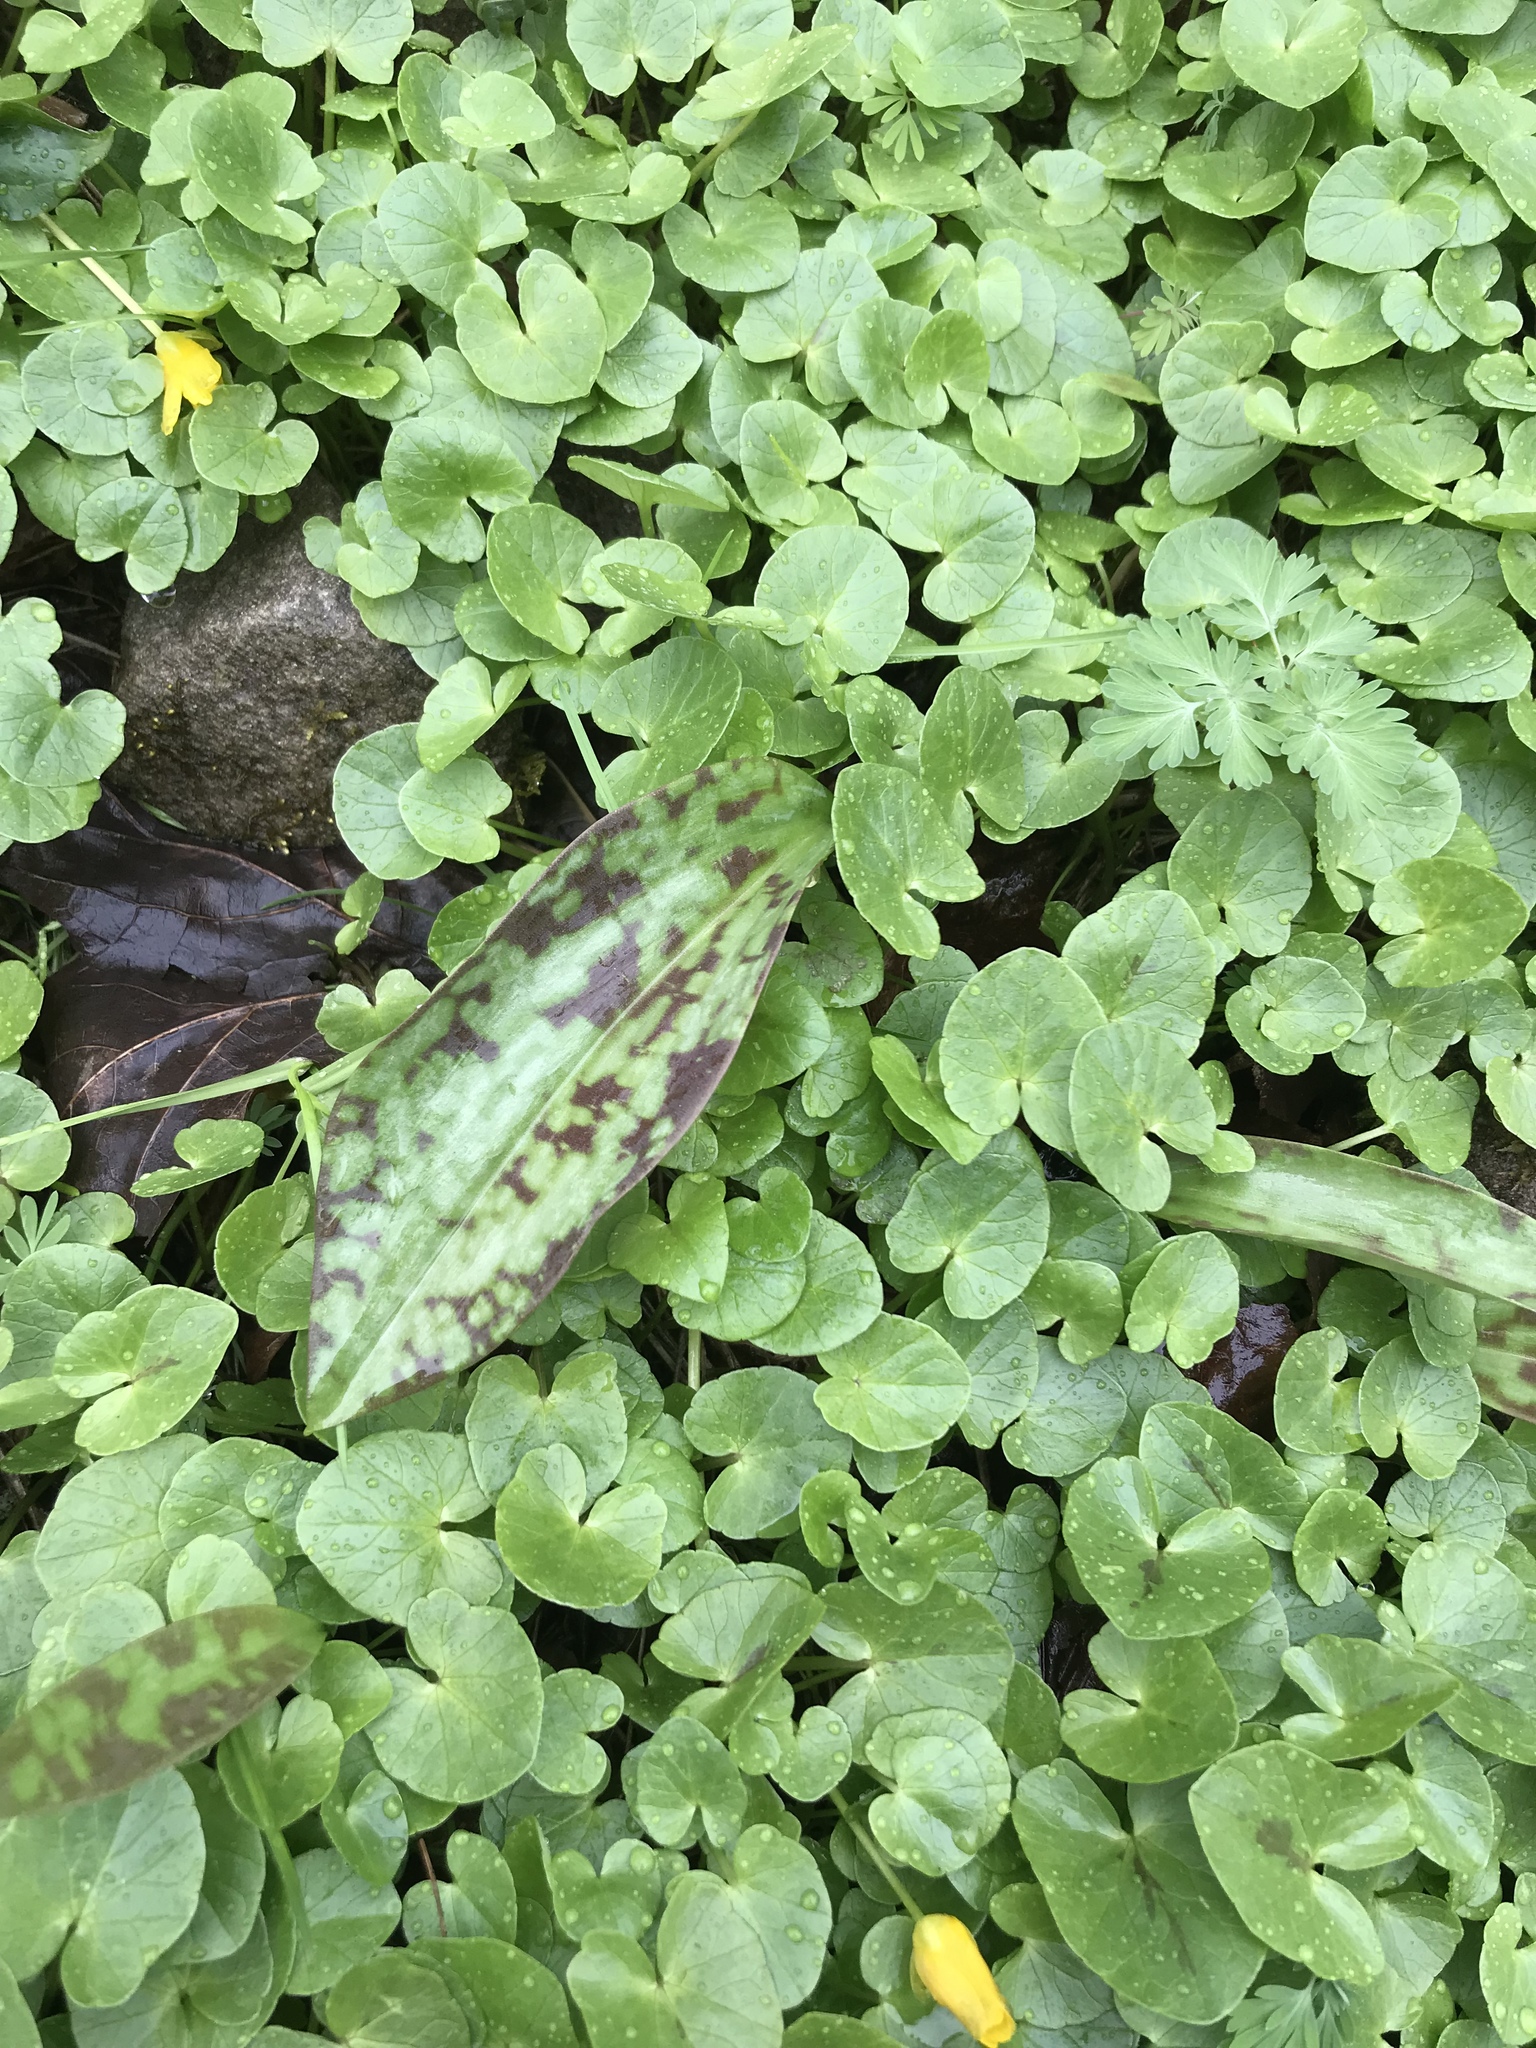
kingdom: Plantae
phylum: Tracheophyta
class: Magnoliopsida
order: Ranunculales
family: Ranunculaceae
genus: Ficaria
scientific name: Ficaria verna
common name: Lesser celandine
